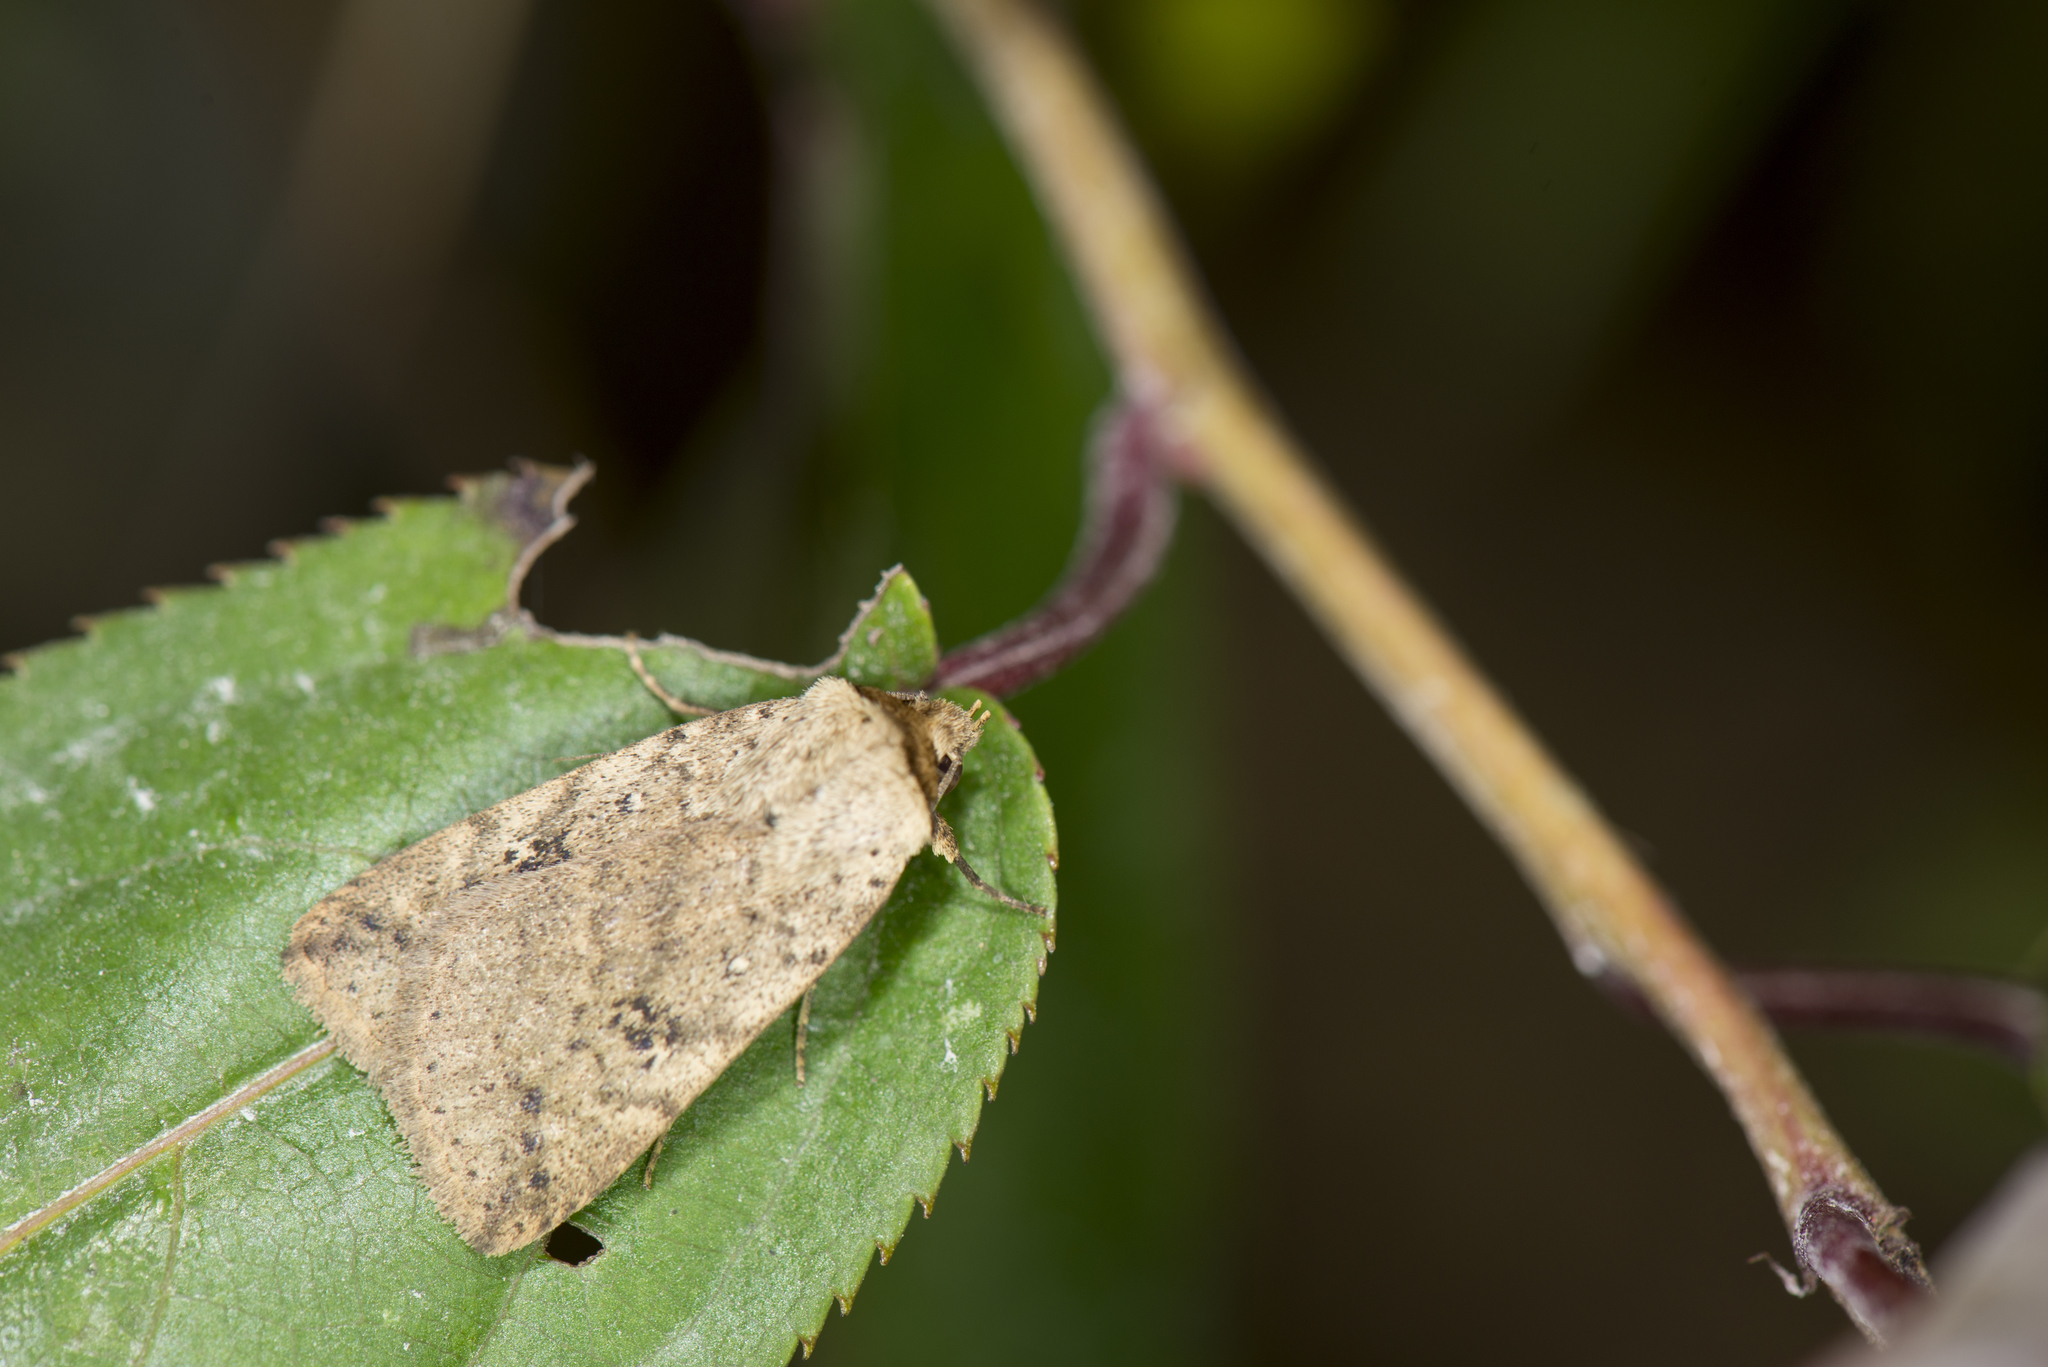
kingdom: Animalia
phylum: Arthropoda
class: Insecta
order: Lepidoptera
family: Noctuidae
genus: Xylostola
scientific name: Xylostola indistincta
